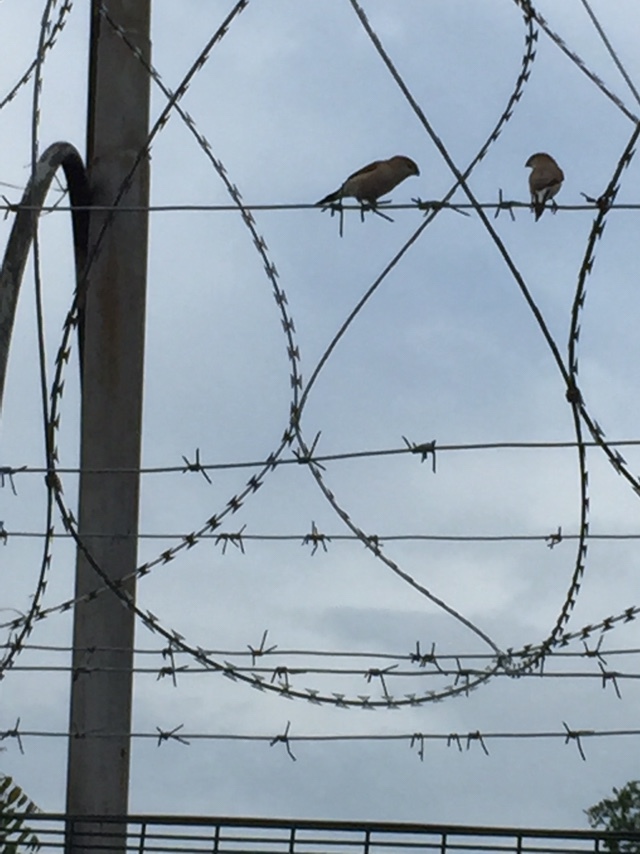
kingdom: Animalia
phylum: Chordata
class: Aves
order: Passeriformes
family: Estrildidae
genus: Euodice
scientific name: Euodice malabarica
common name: Indian silverbill
